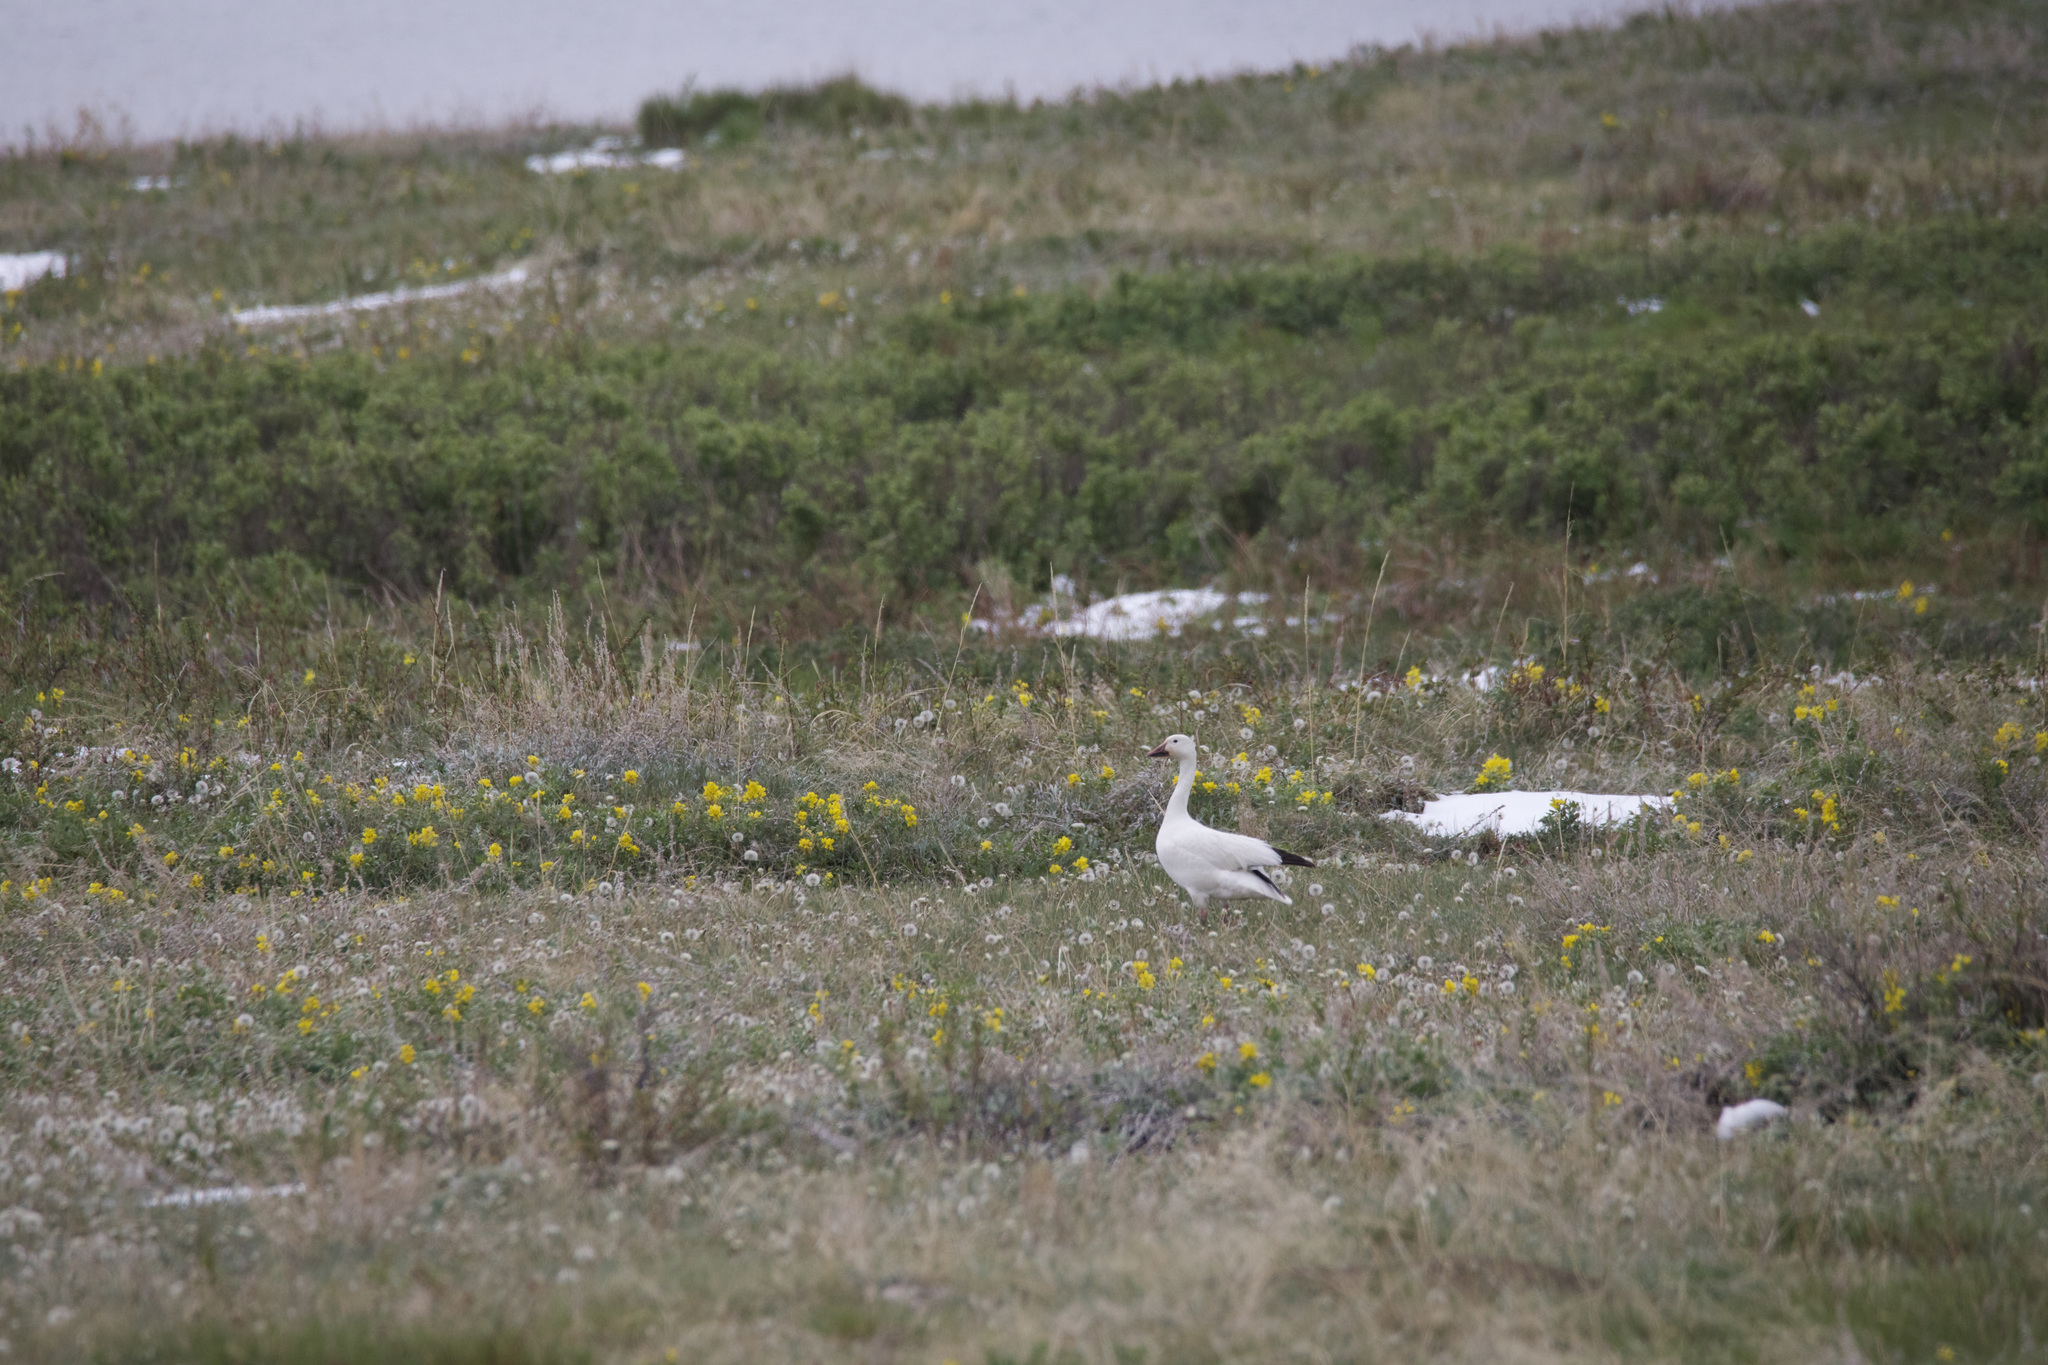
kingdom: Animalia
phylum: Chordata
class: Aves
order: Anseriformes
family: Anatidae
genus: Anser
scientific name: Anser caerulescens
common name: Snow goose
